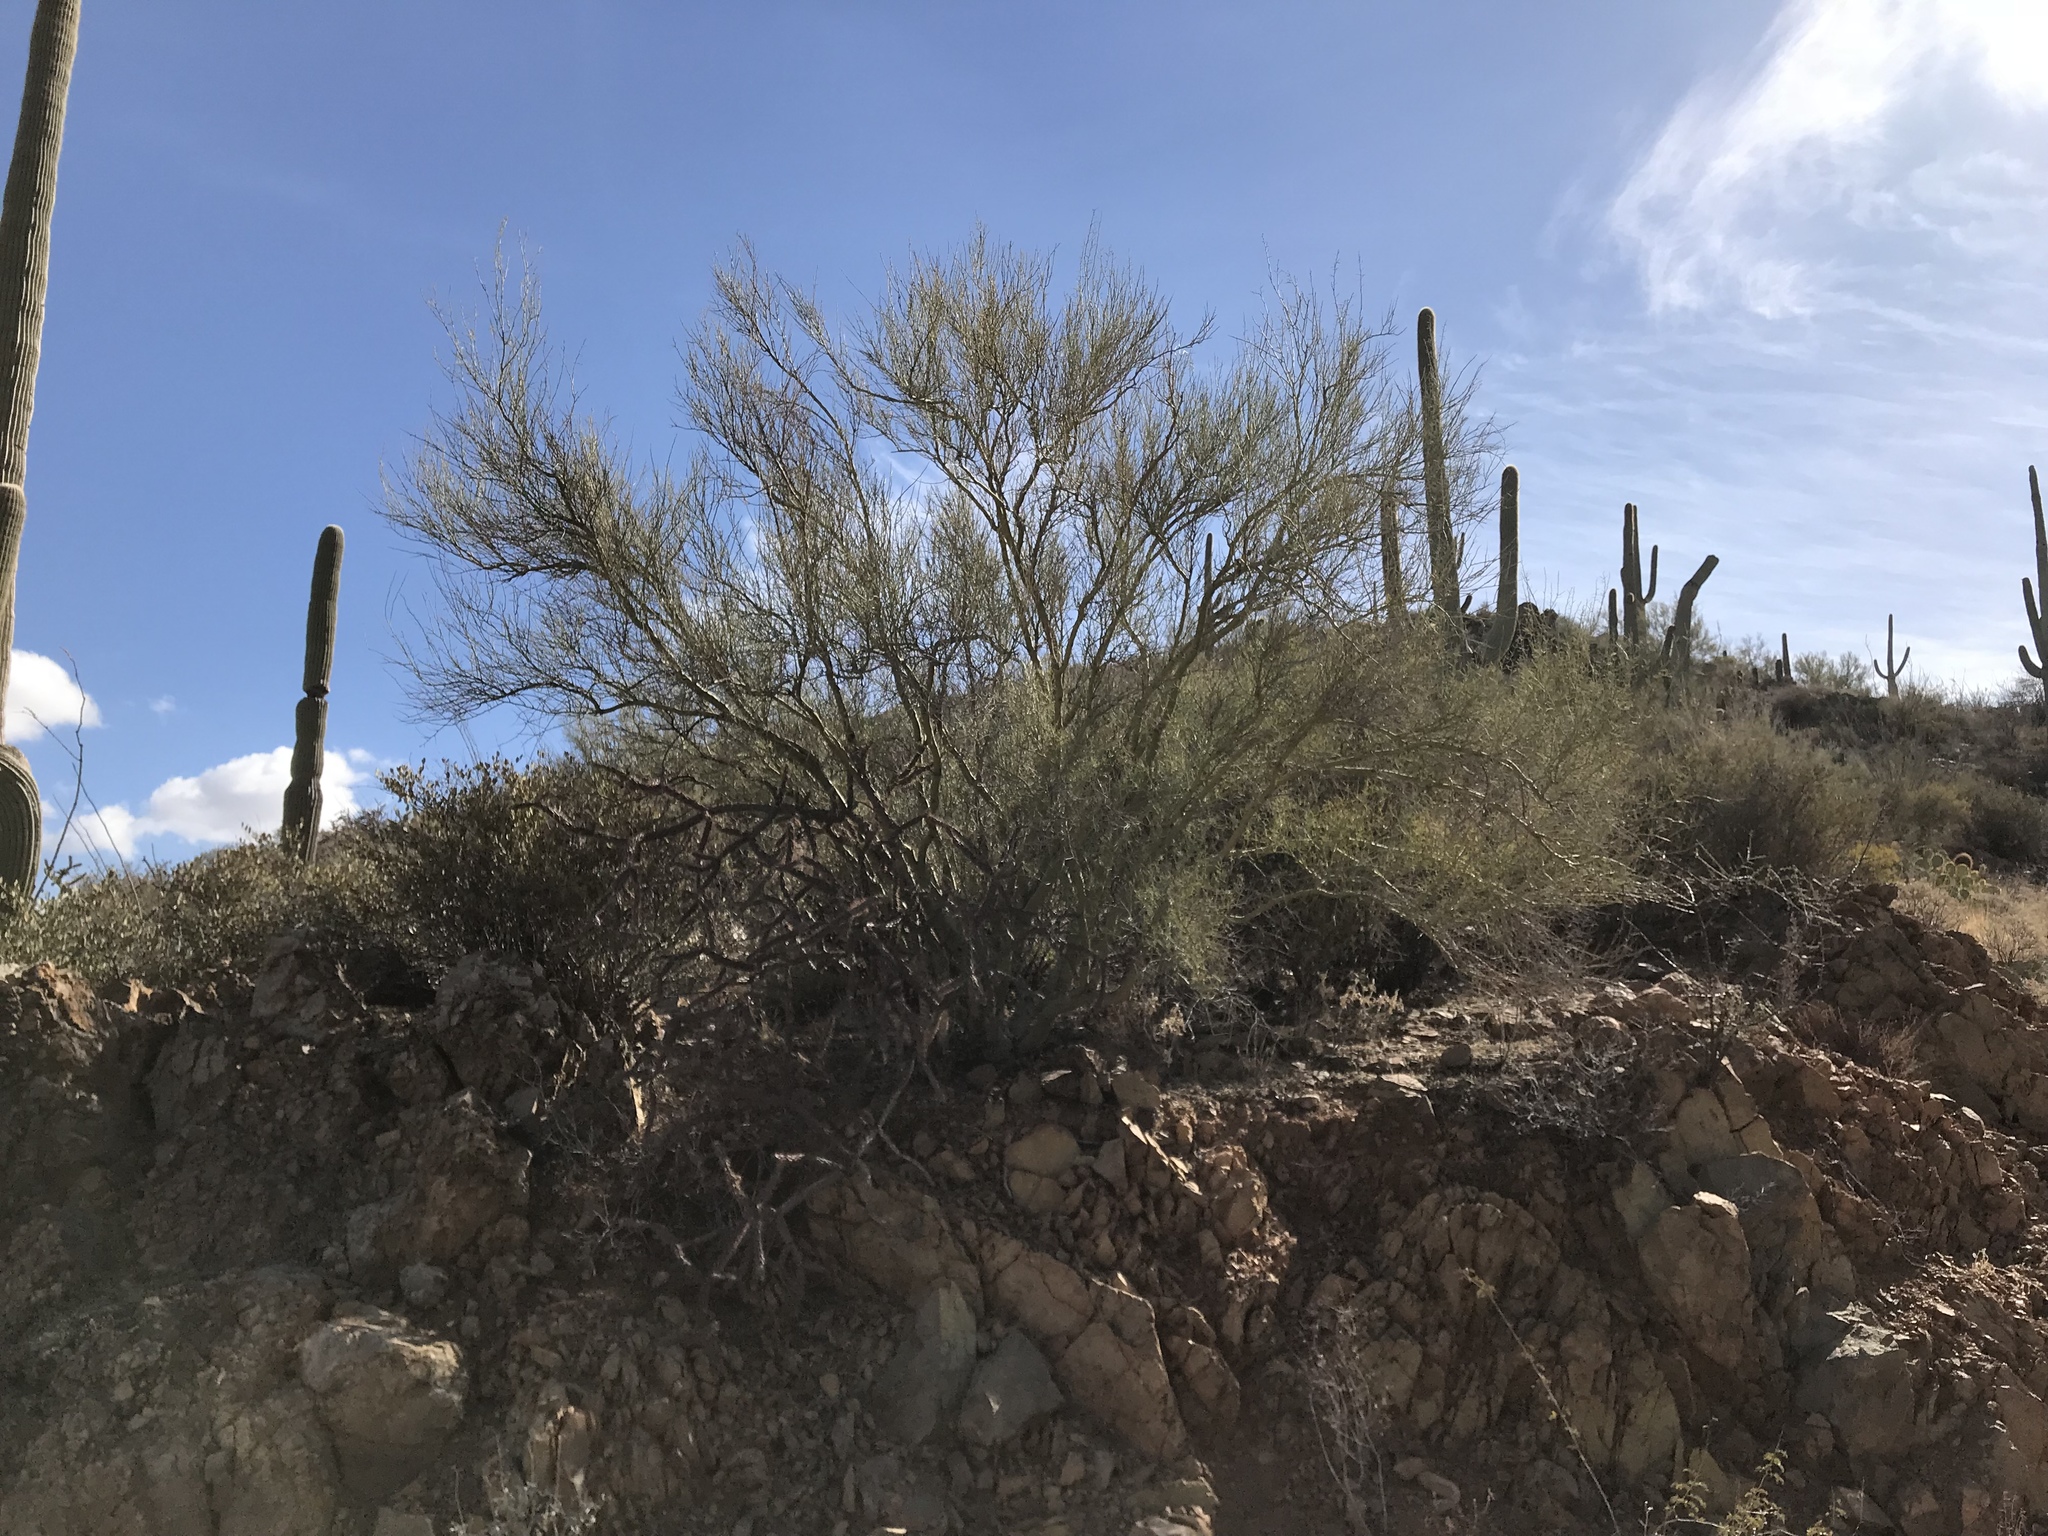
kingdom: Plantae
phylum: Tracheophyta
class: Magnoliopsida
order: Fabales
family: Fabaceae
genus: Parkinsonia
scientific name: Parkinsonia microphylla
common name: Yellow paloverde
